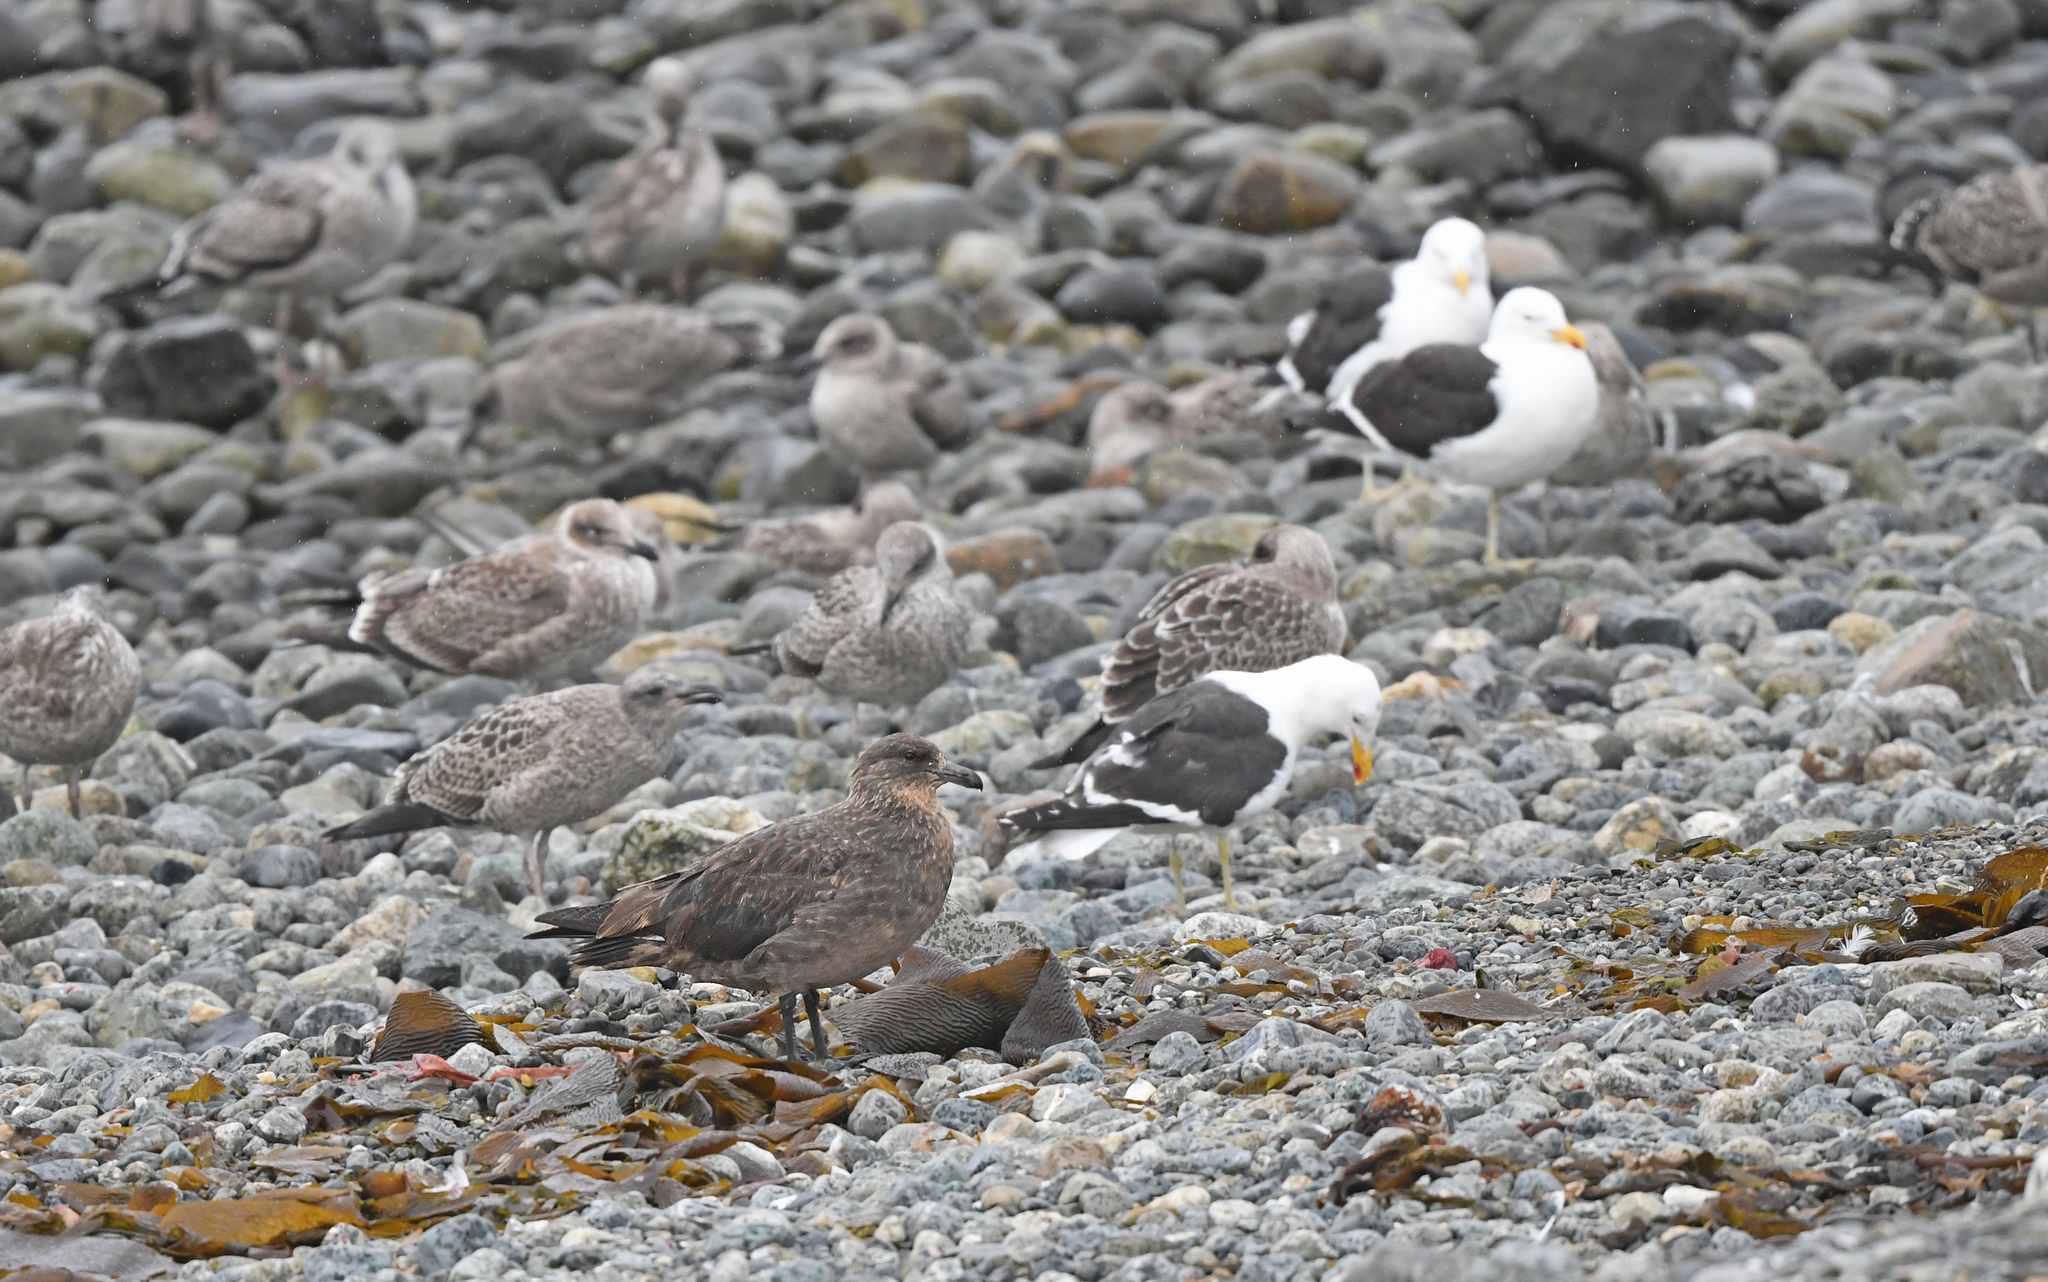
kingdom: Animalia
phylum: Chordata
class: Aves
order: Charadriiformes
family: Stercorariidae
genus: Stercorarius
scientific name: Stercorarius chilensis
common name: Chilean skua
